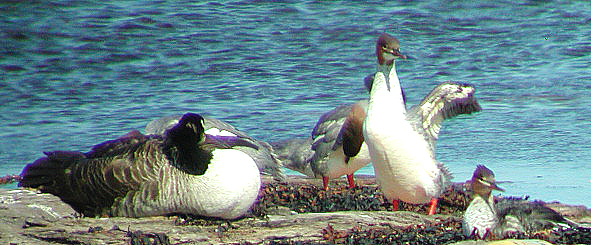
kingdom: Animalia
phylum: Chordata
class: Aves
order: Anseriformes
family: Anatidae
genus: Mergus
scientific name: Mergus merganser
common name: Common merganser
